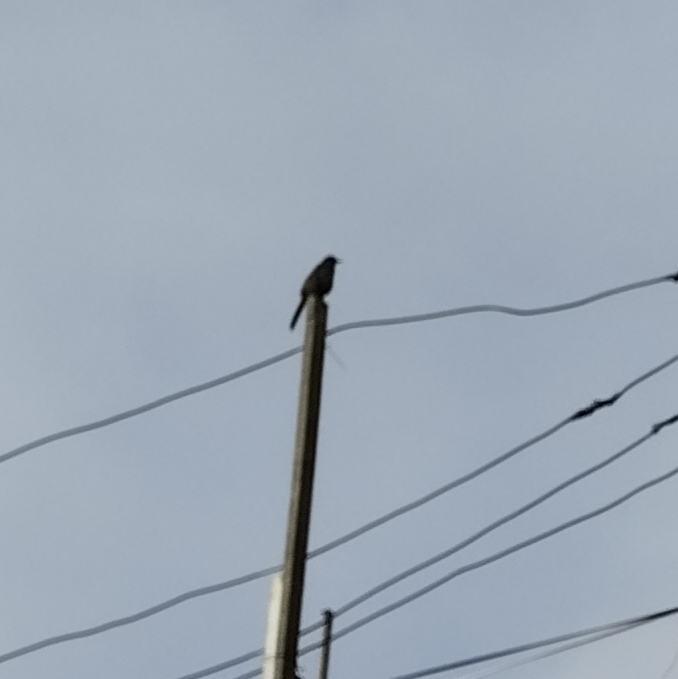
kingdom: Animalia
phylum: Chordata
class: Aves
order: Passeriformes
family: Turdidae
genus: Turdus
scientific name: Turdus fuscater
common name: Great thrush
